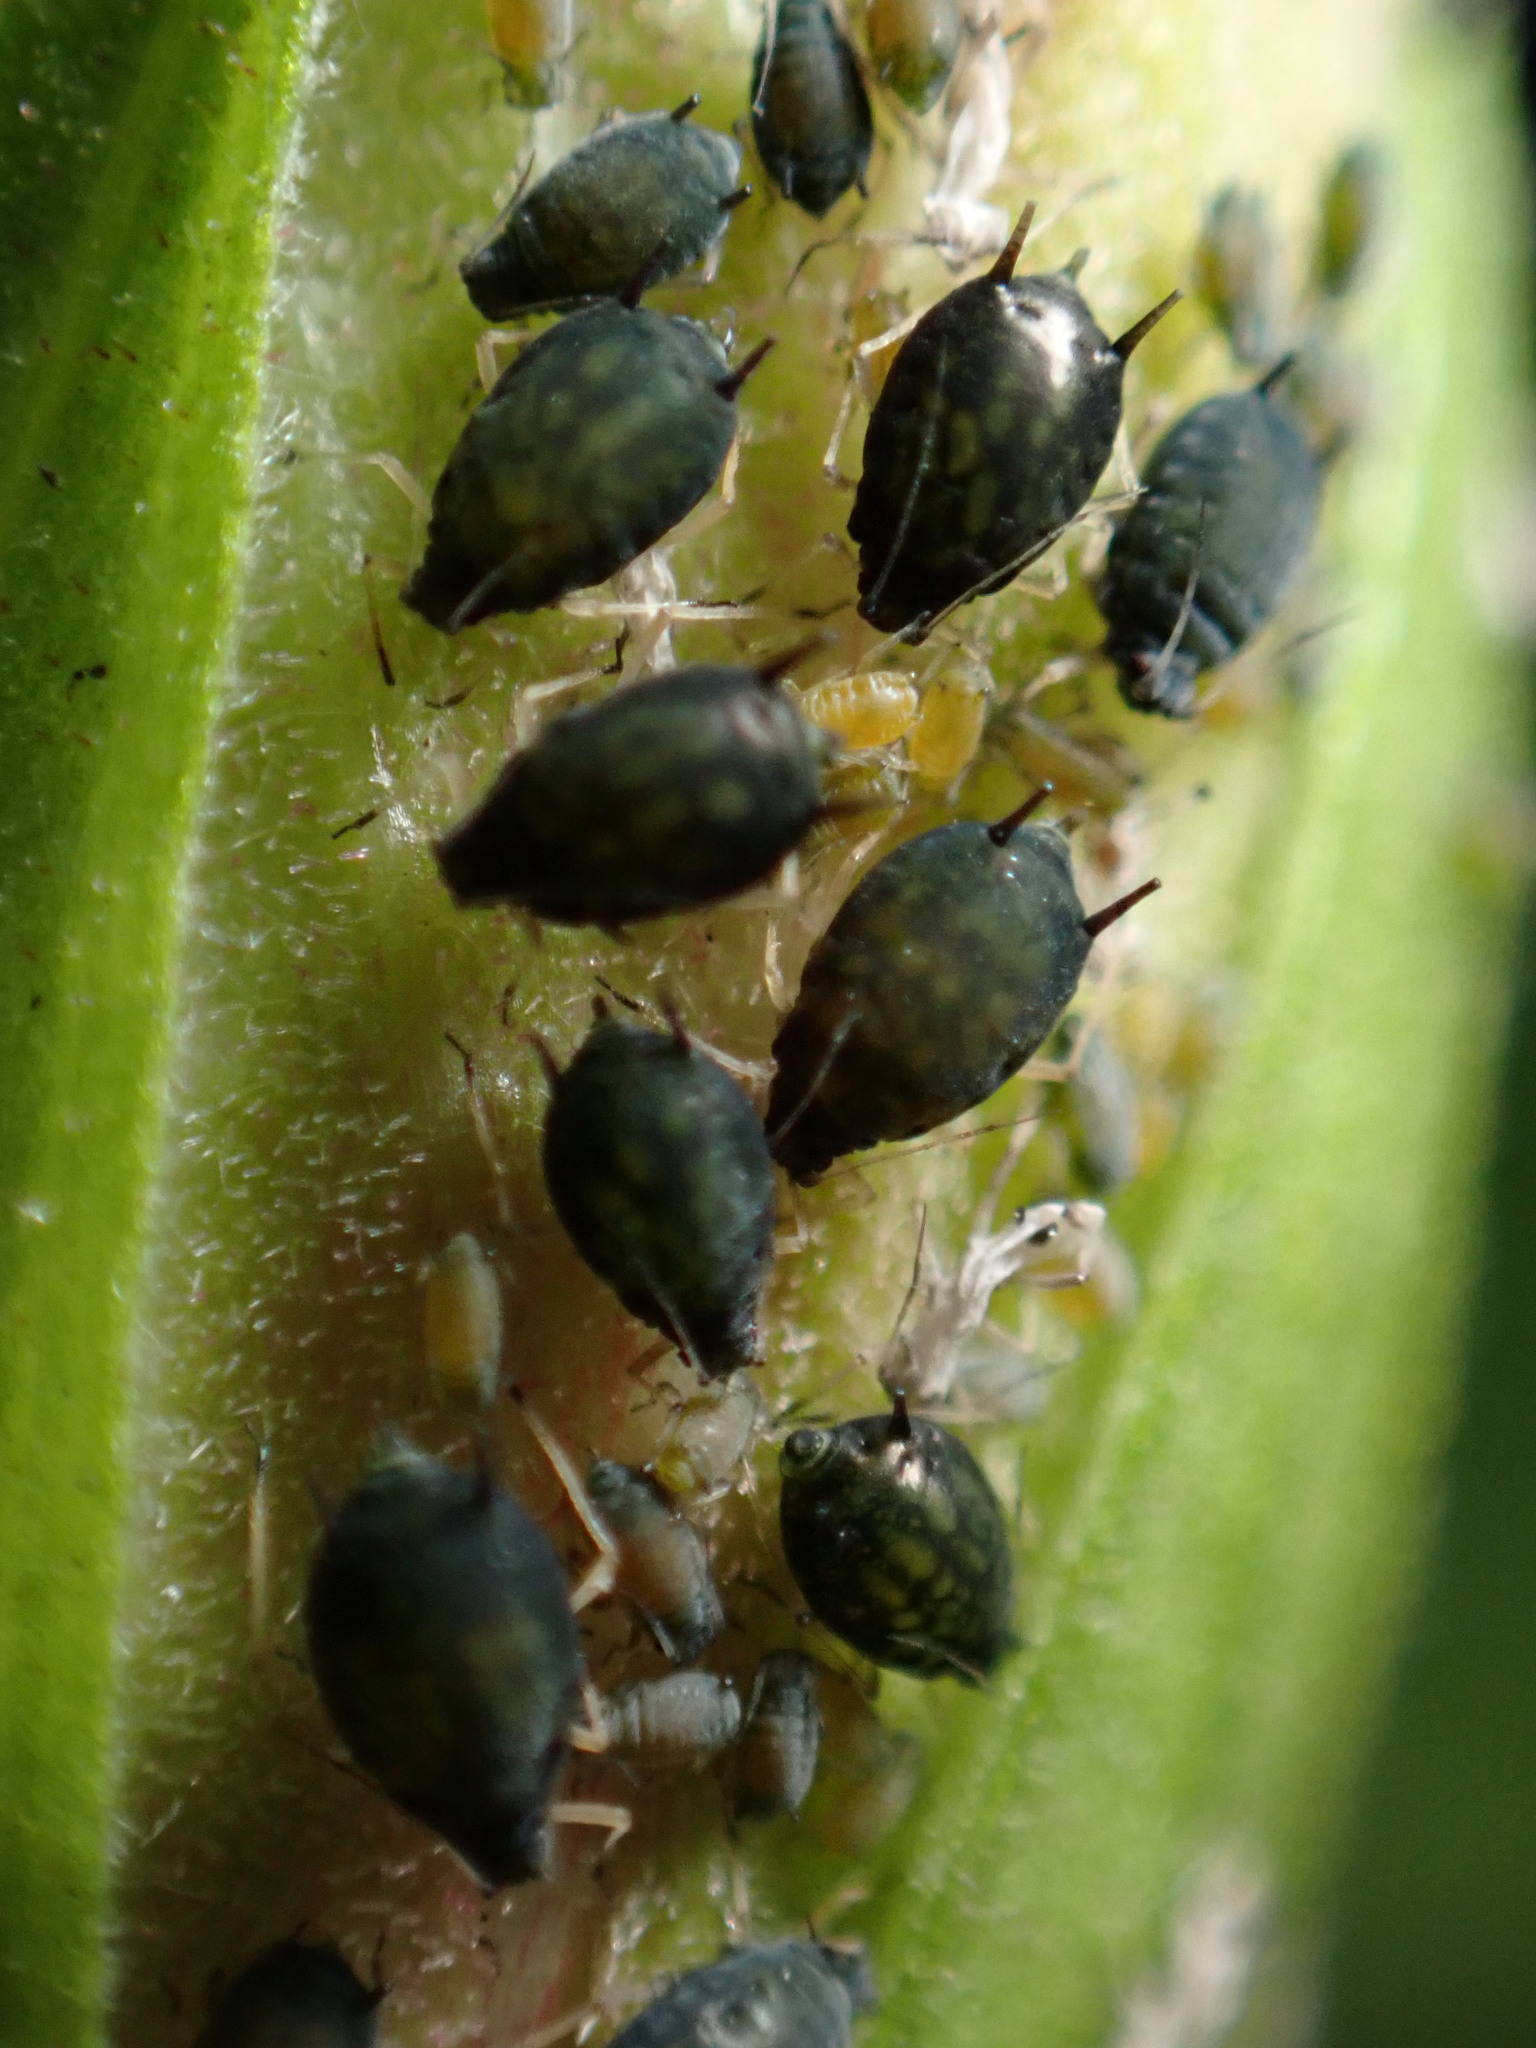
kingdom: Animalia
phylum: Arthropoda
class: Insecta
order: Hemiptera
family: Aphididae
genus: Aphis
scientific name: Aphis gossypii
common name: Melon aphid
